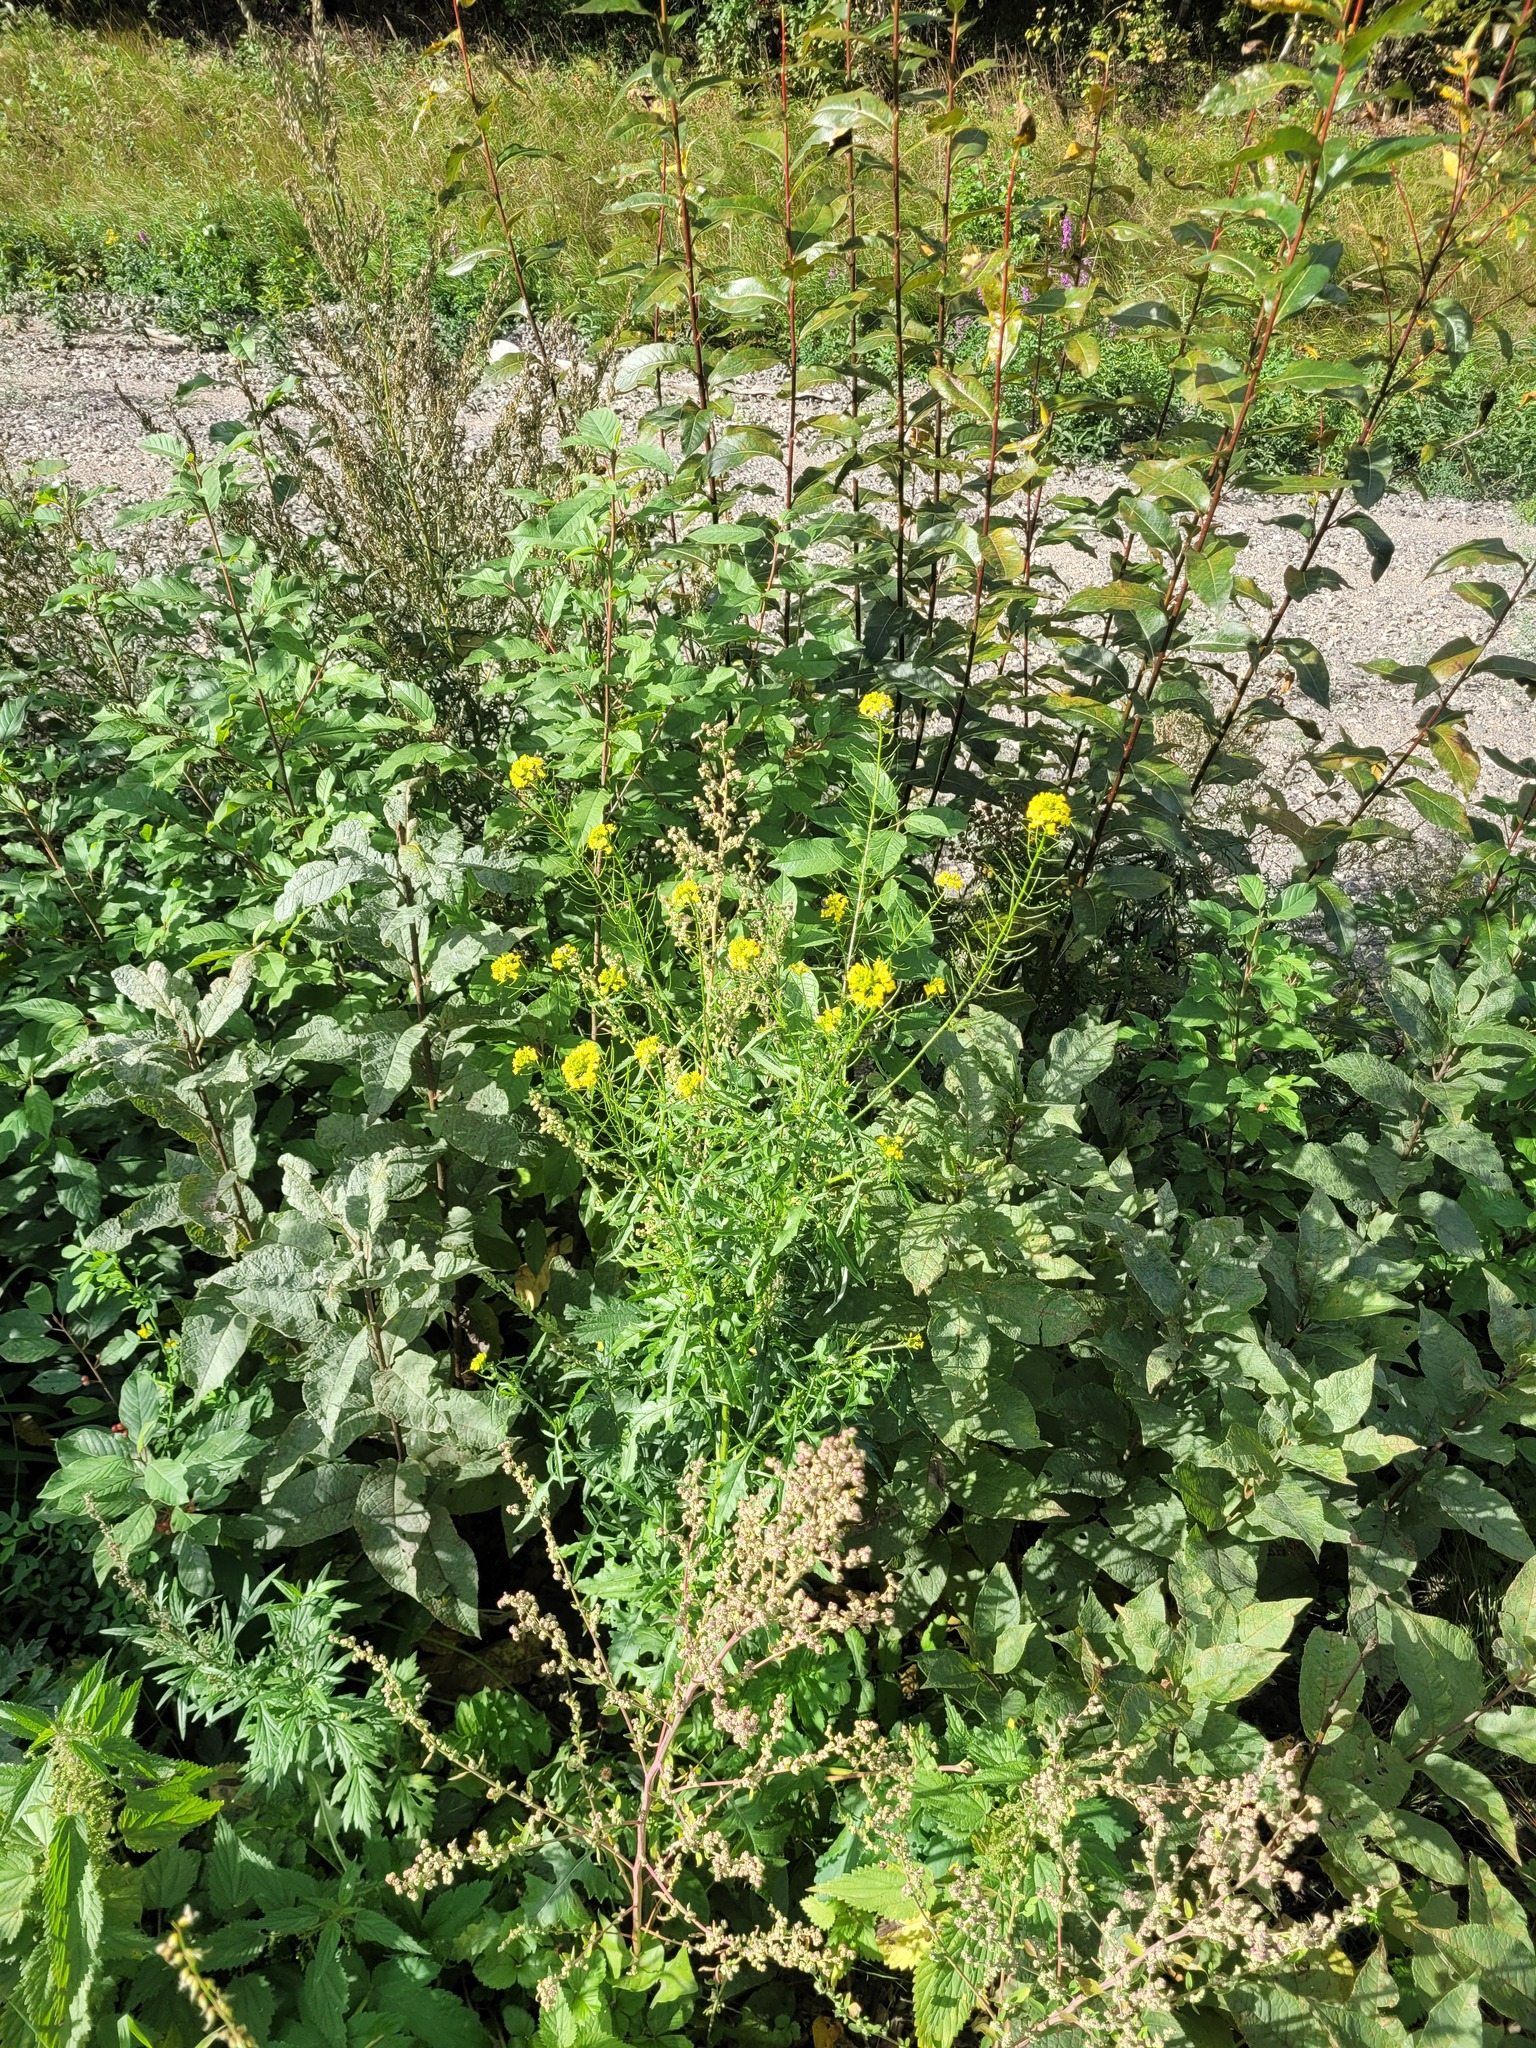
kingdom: Plantae
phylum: Tracheophyta
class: Magnoliopsida
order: Brassicales
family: Brassicaceae
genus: Sisymbrium
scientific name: Sisymbrium loeselii
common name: False london-rocket
